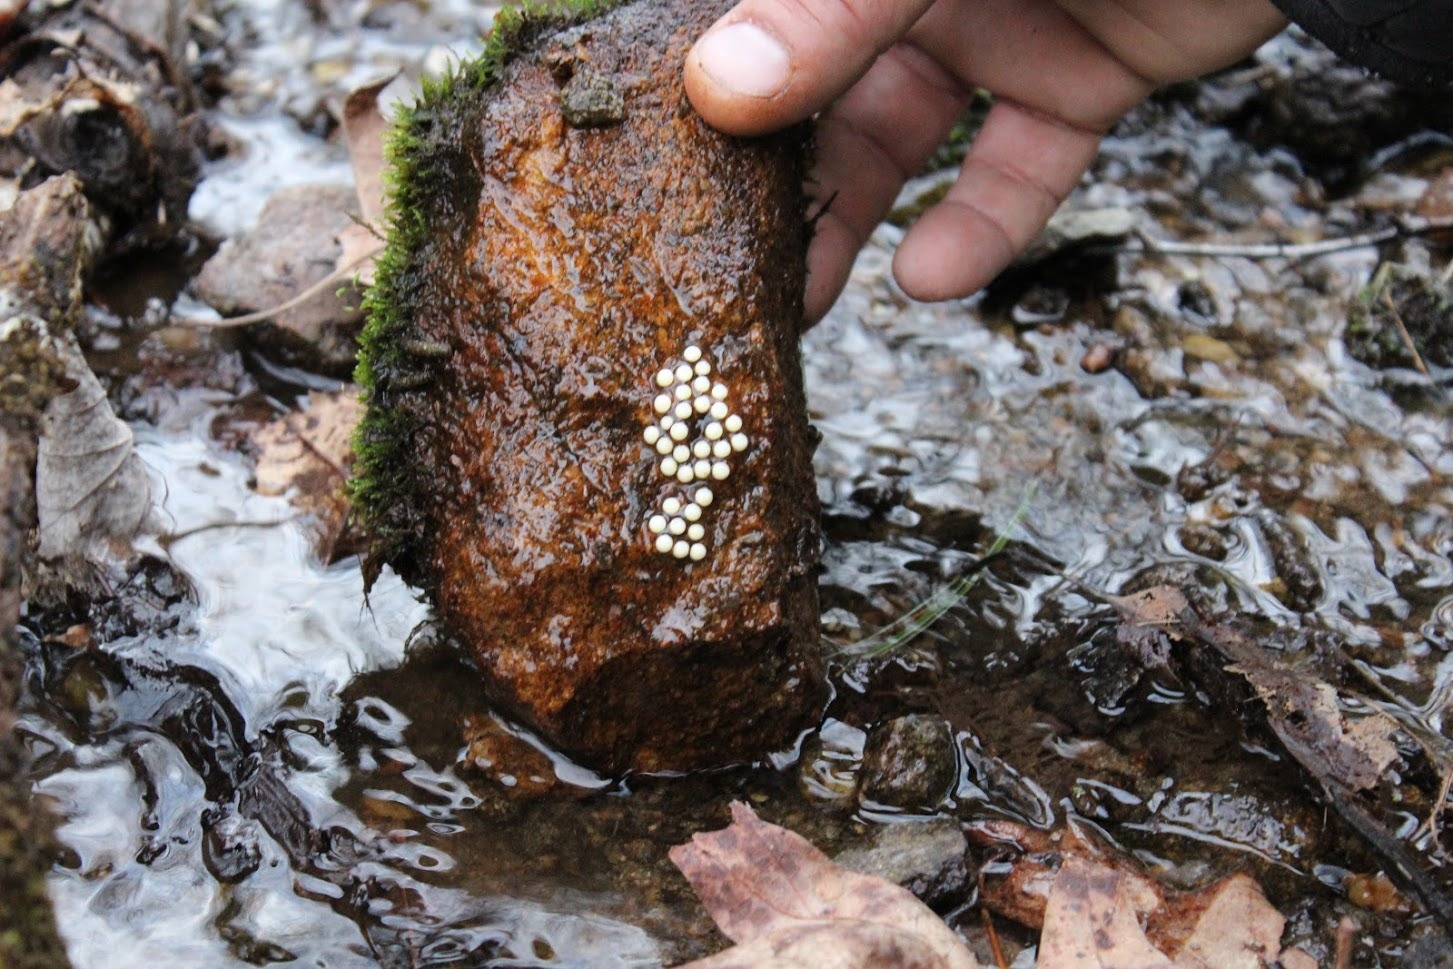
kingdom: Animalia
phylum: Chordata
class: Amphibia
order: Caudata
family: Plethodontidae
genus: Eurycea
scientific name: Eurycea cirrigera
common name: Southern two-lined salamander
